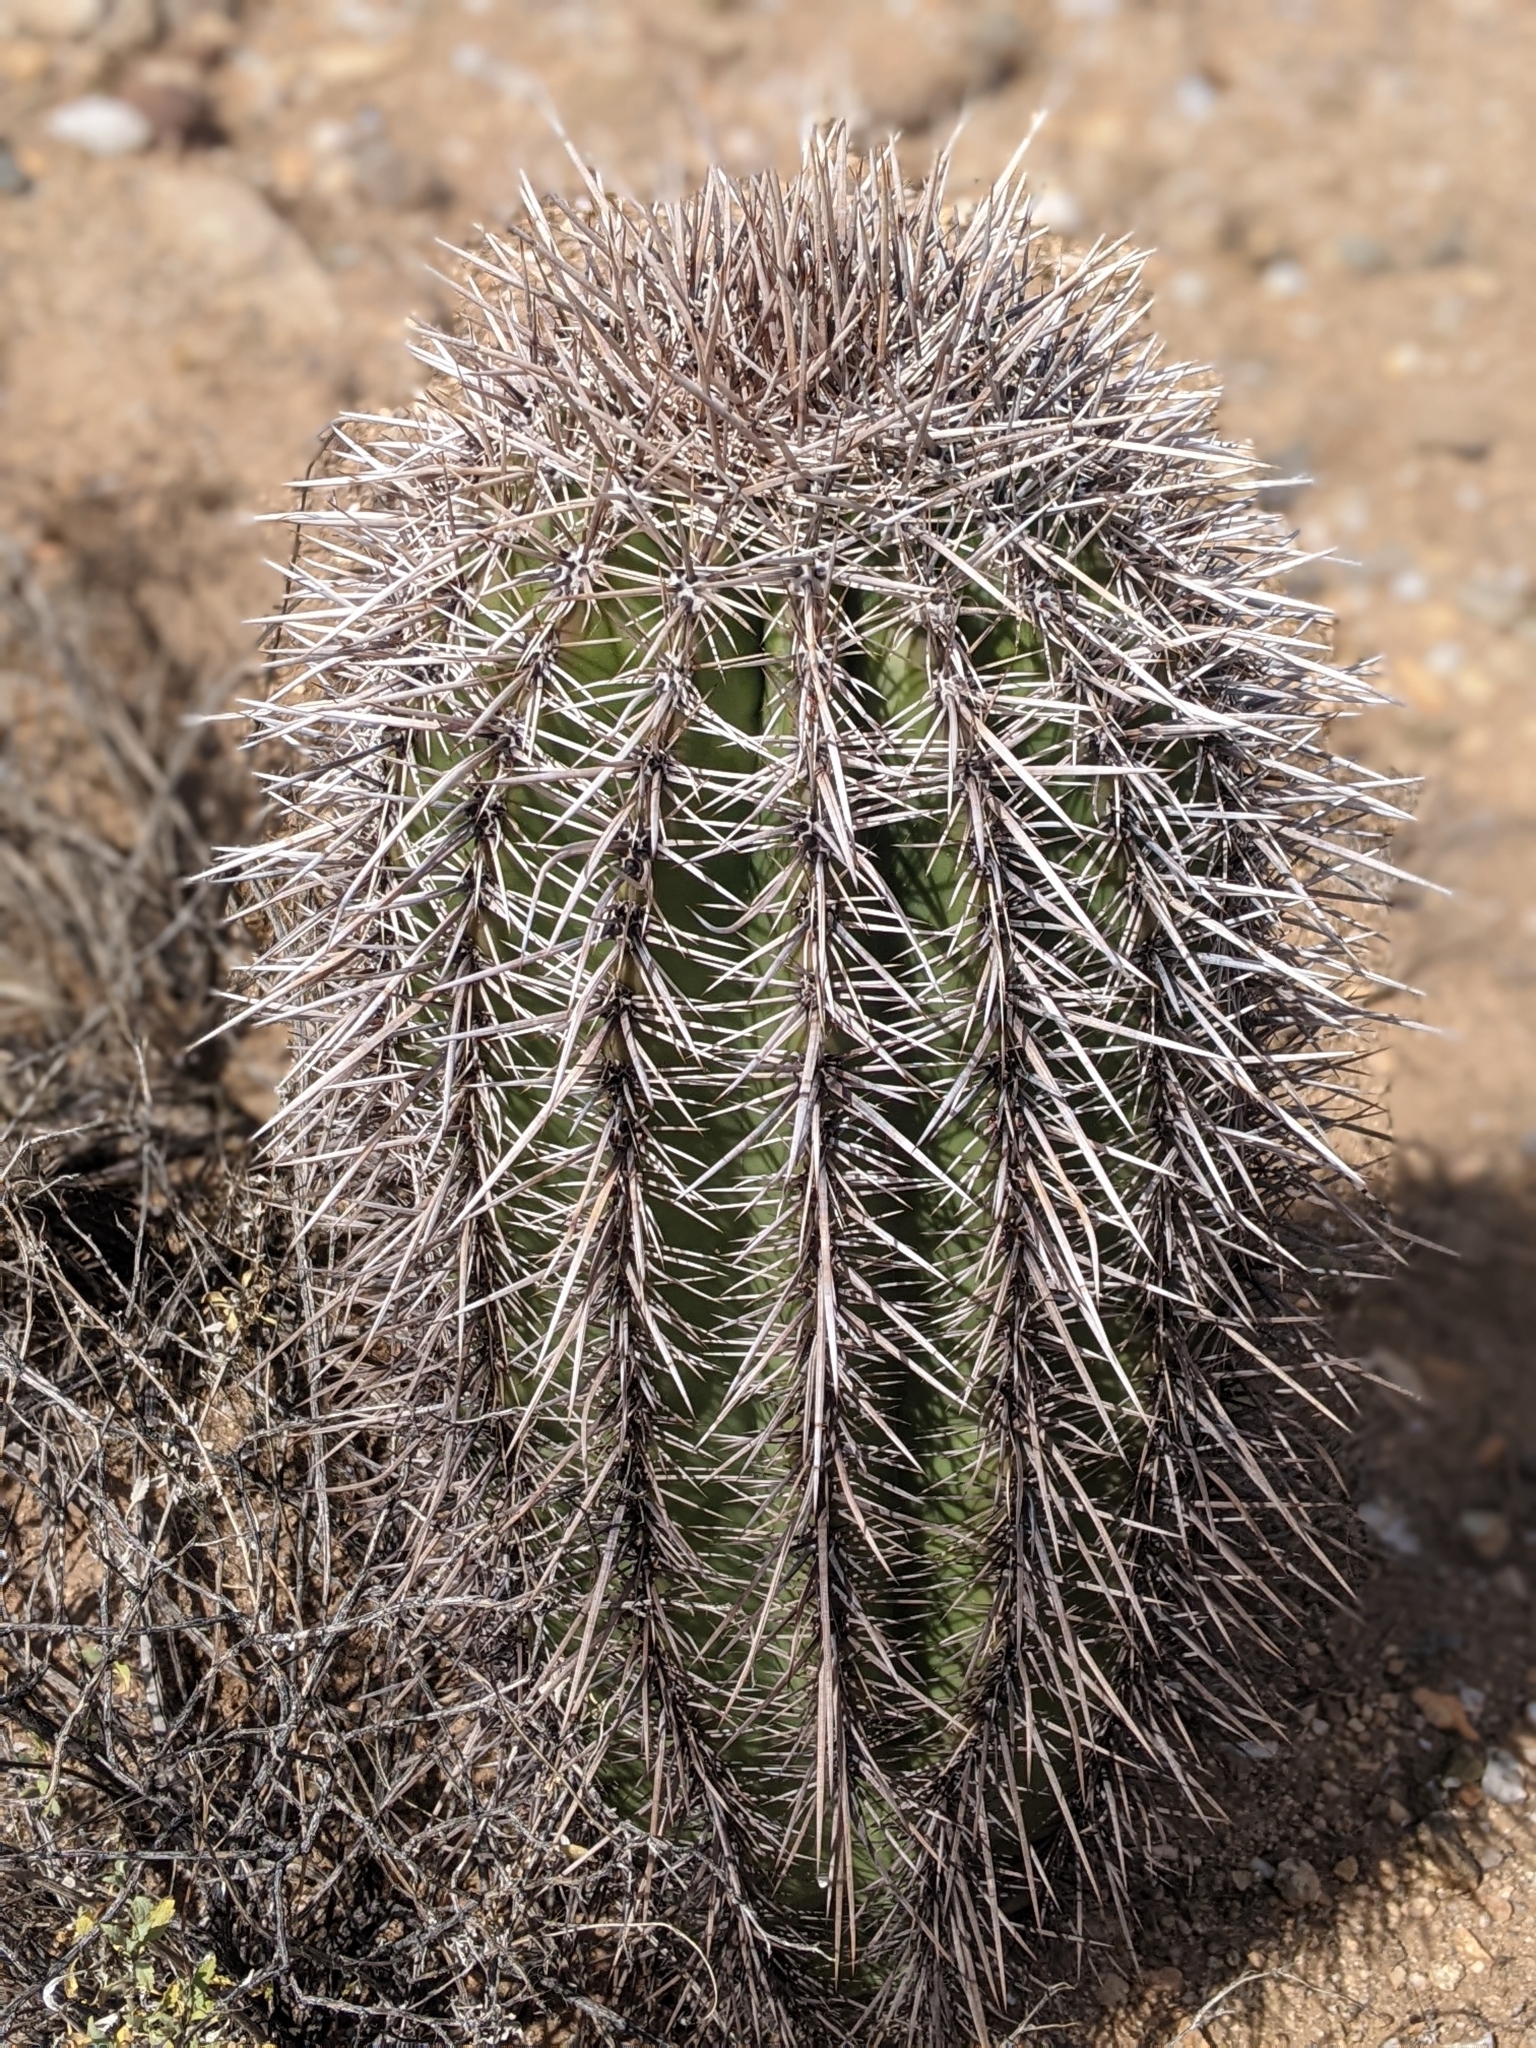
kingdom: Plantae
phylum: Tracheophyta
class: Magnoliopsida
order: Caryophyllales
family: Cactaceae
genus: Carnegiea
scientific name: Carnegiea gigantea
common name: Saguaro
